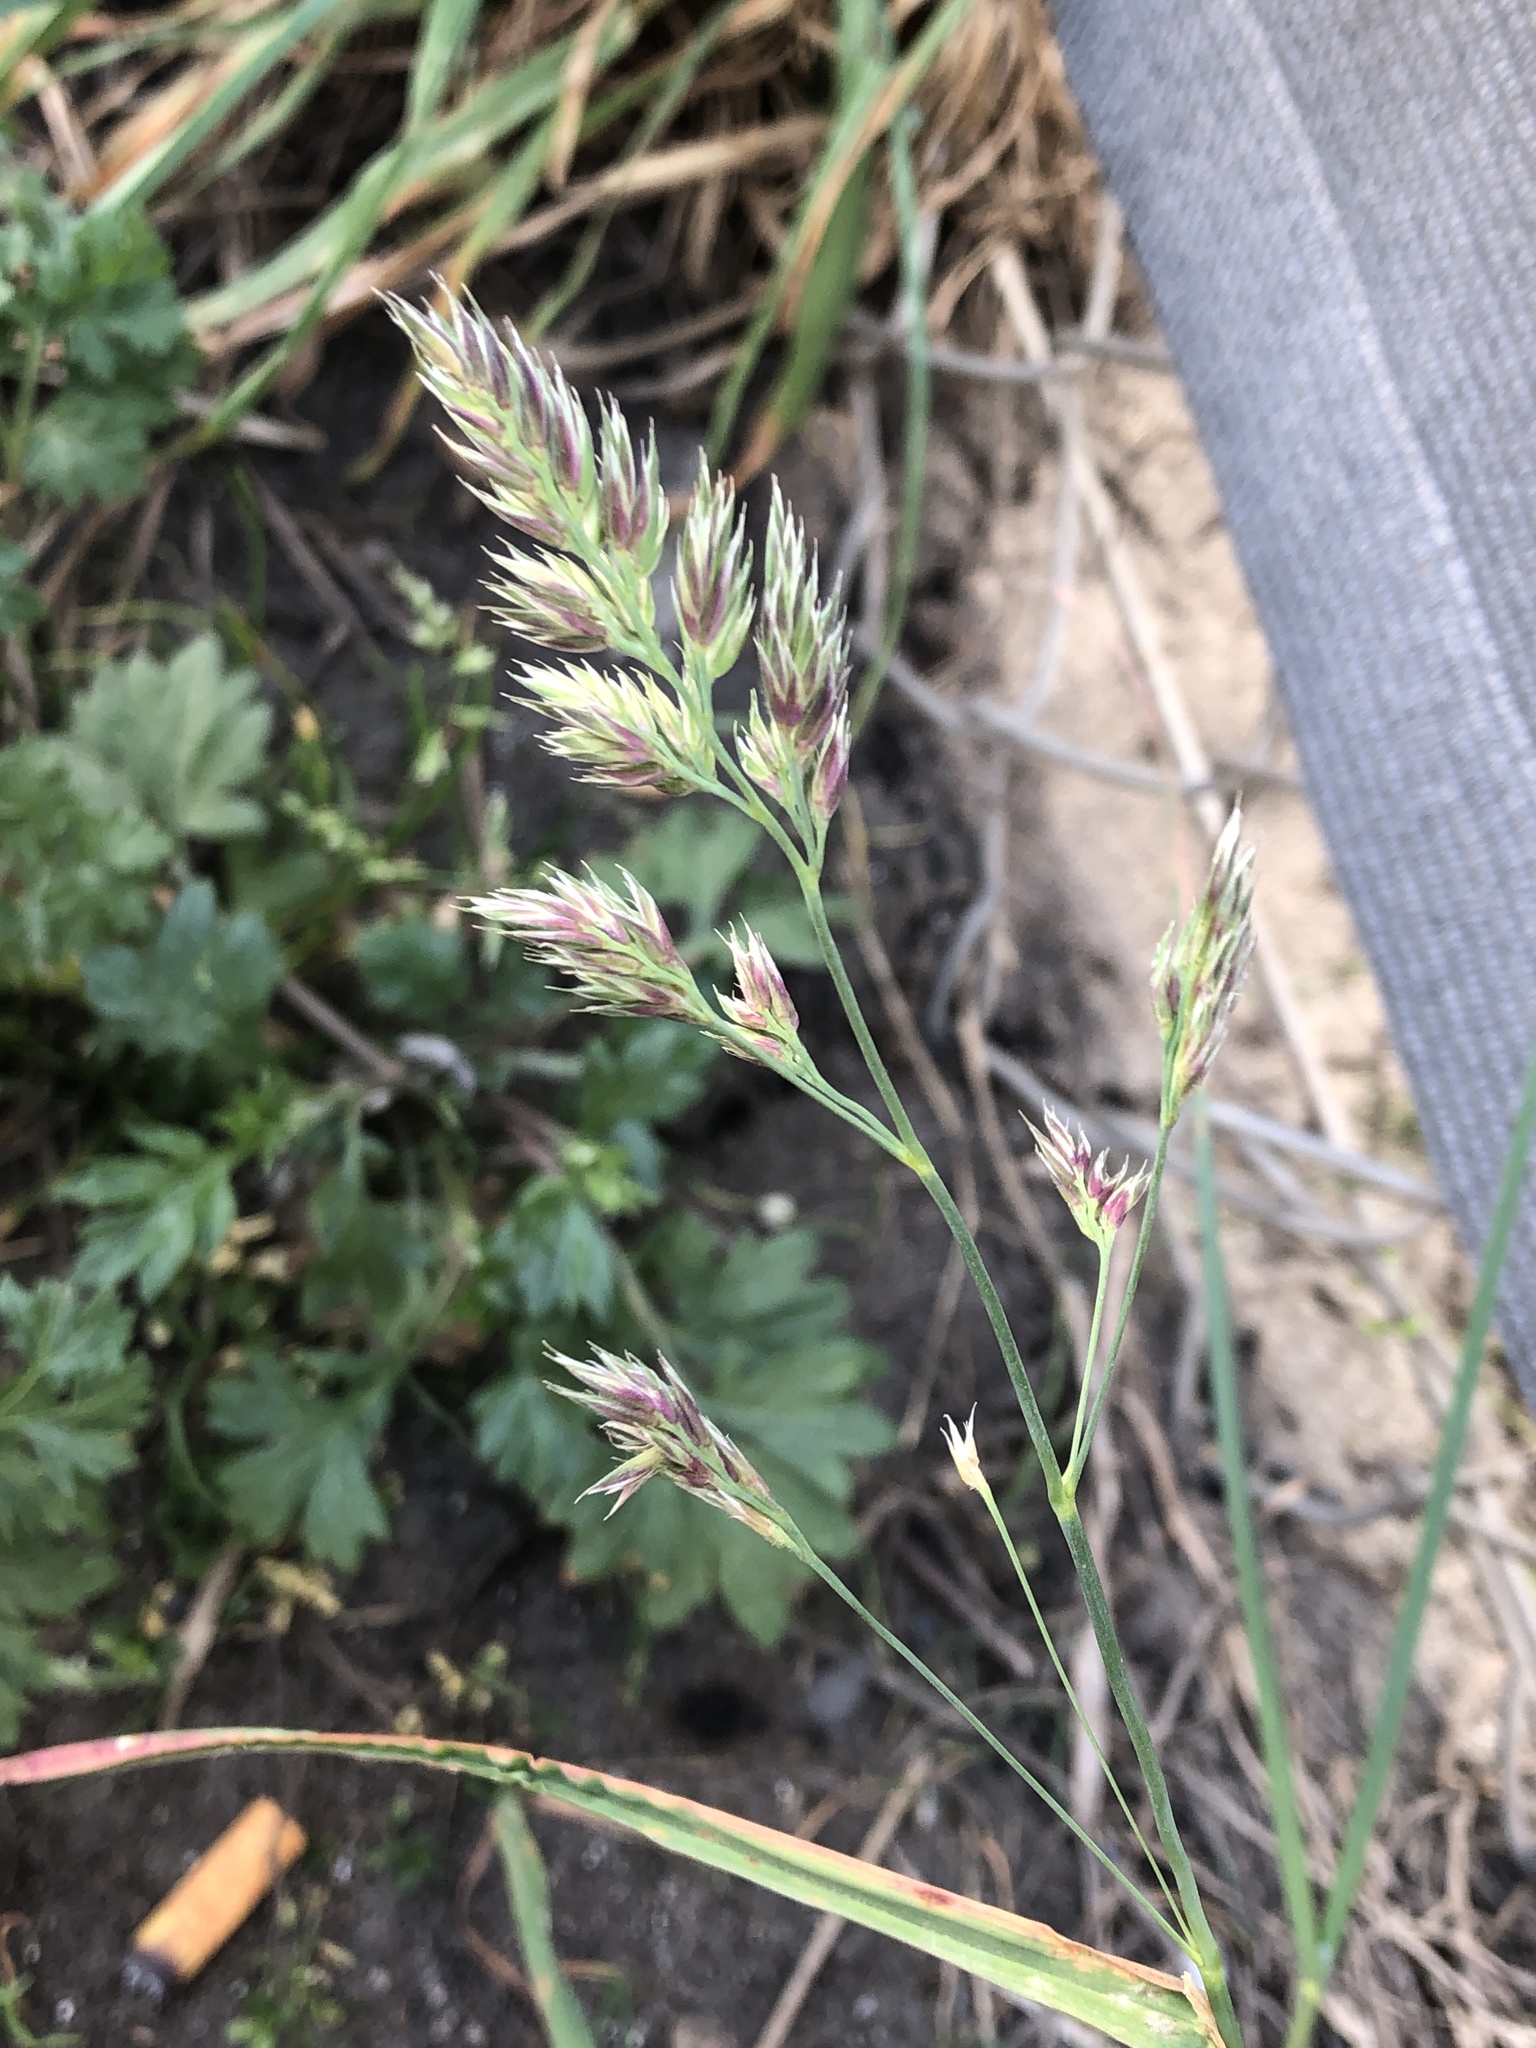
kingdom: Plantae
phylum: Tracheophyta
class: Liliopsida
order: Poales
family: Poaceae
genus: Dactylis
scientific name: Dactylis glomerata
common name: Orchardgrass
